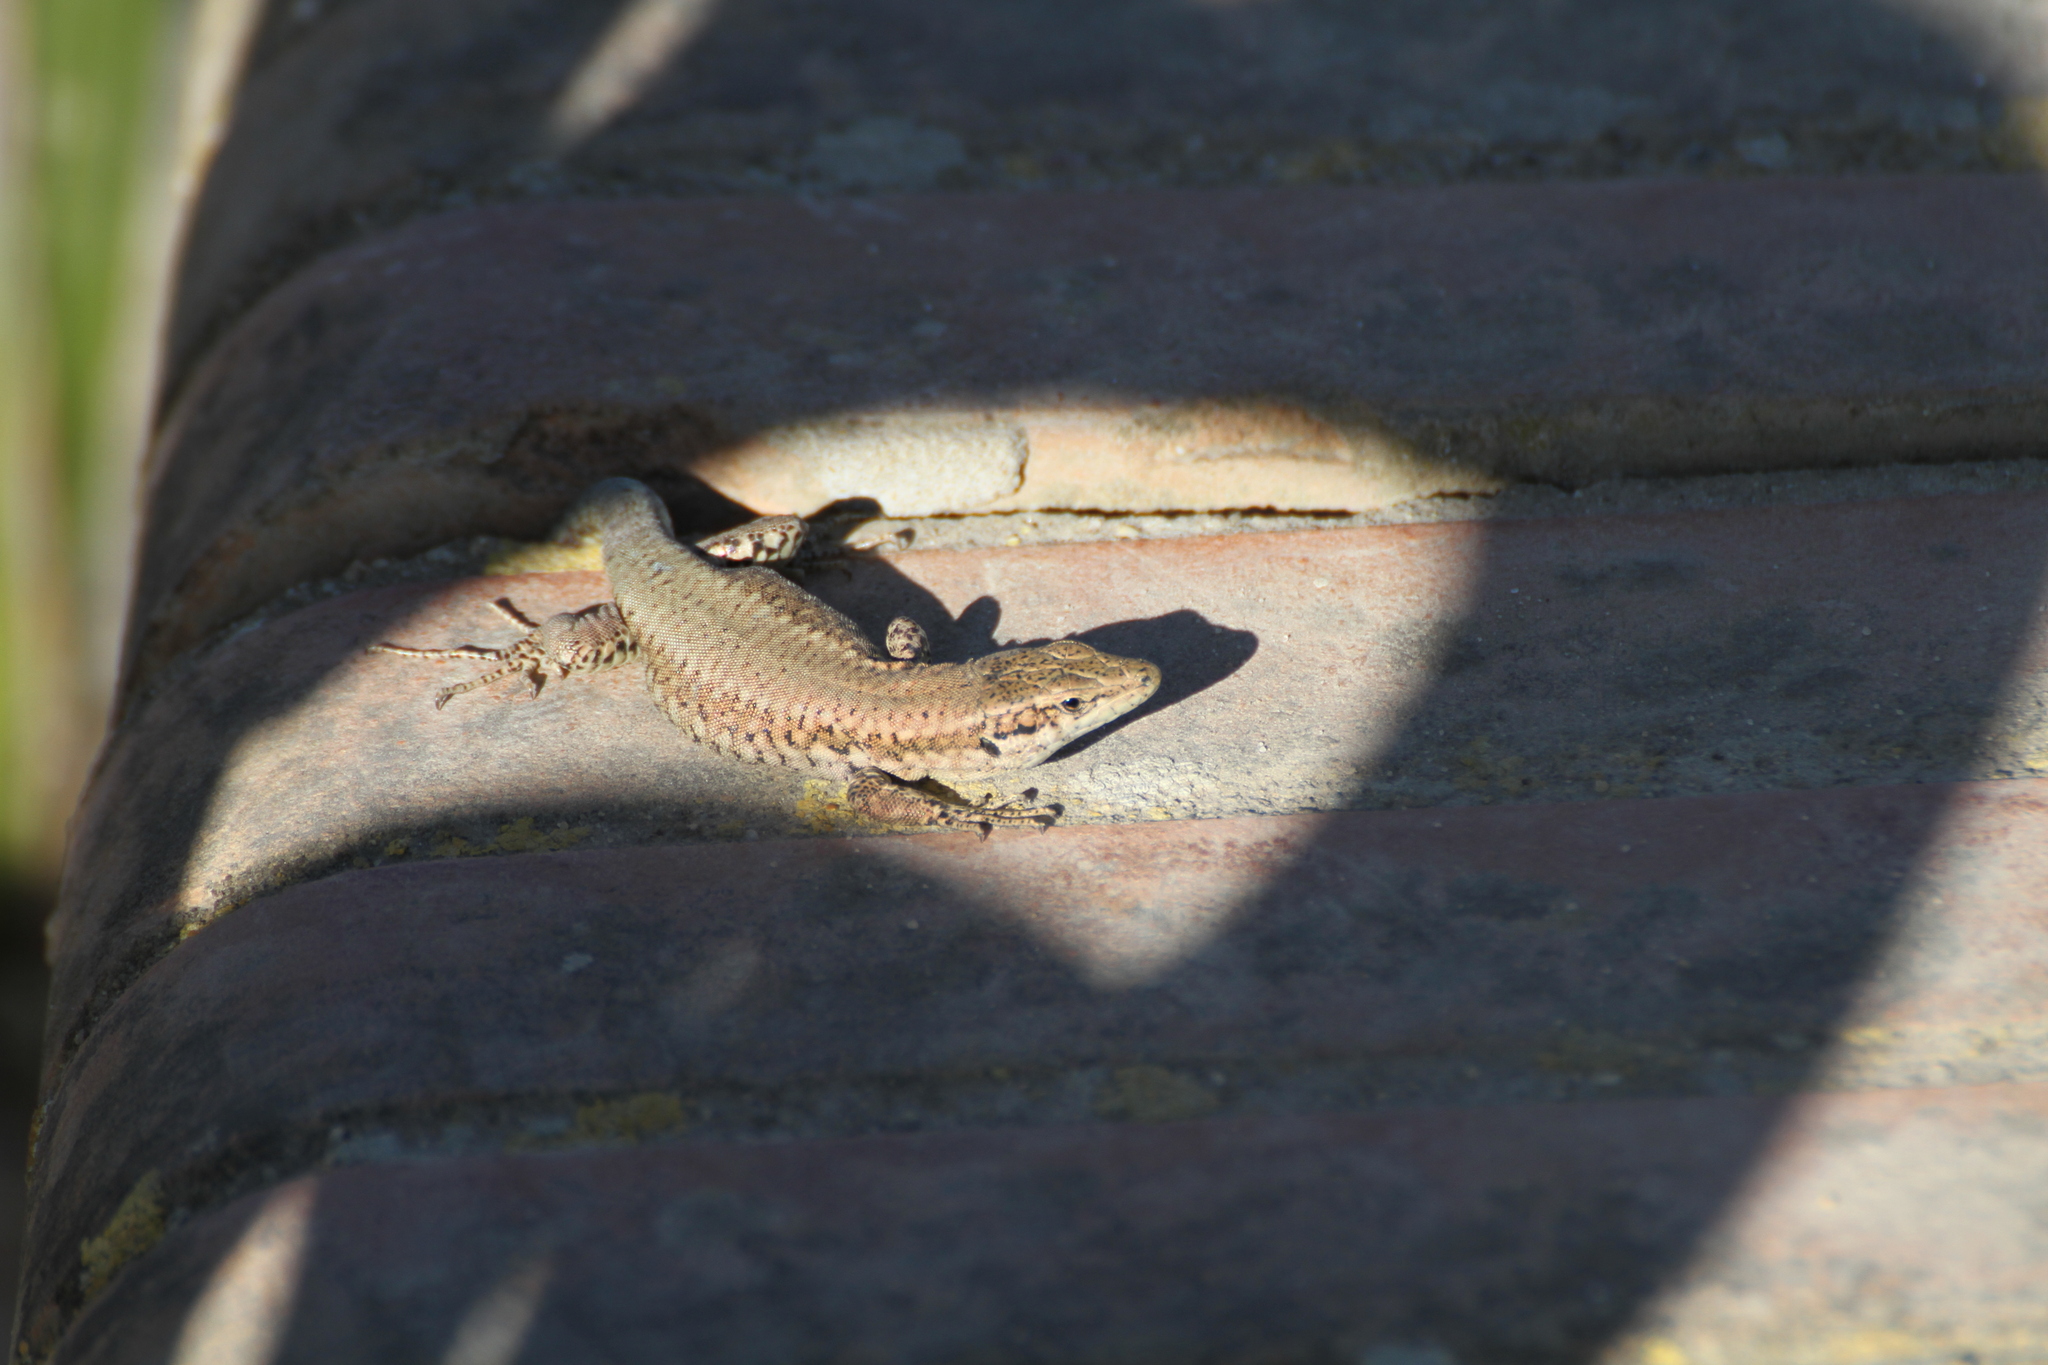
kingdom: Animalia
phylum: Chordata
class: Squamata
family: Lacertidae
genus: Podarcis
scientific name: Podarcis vaucheri
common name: Vaucher's wall lizard
